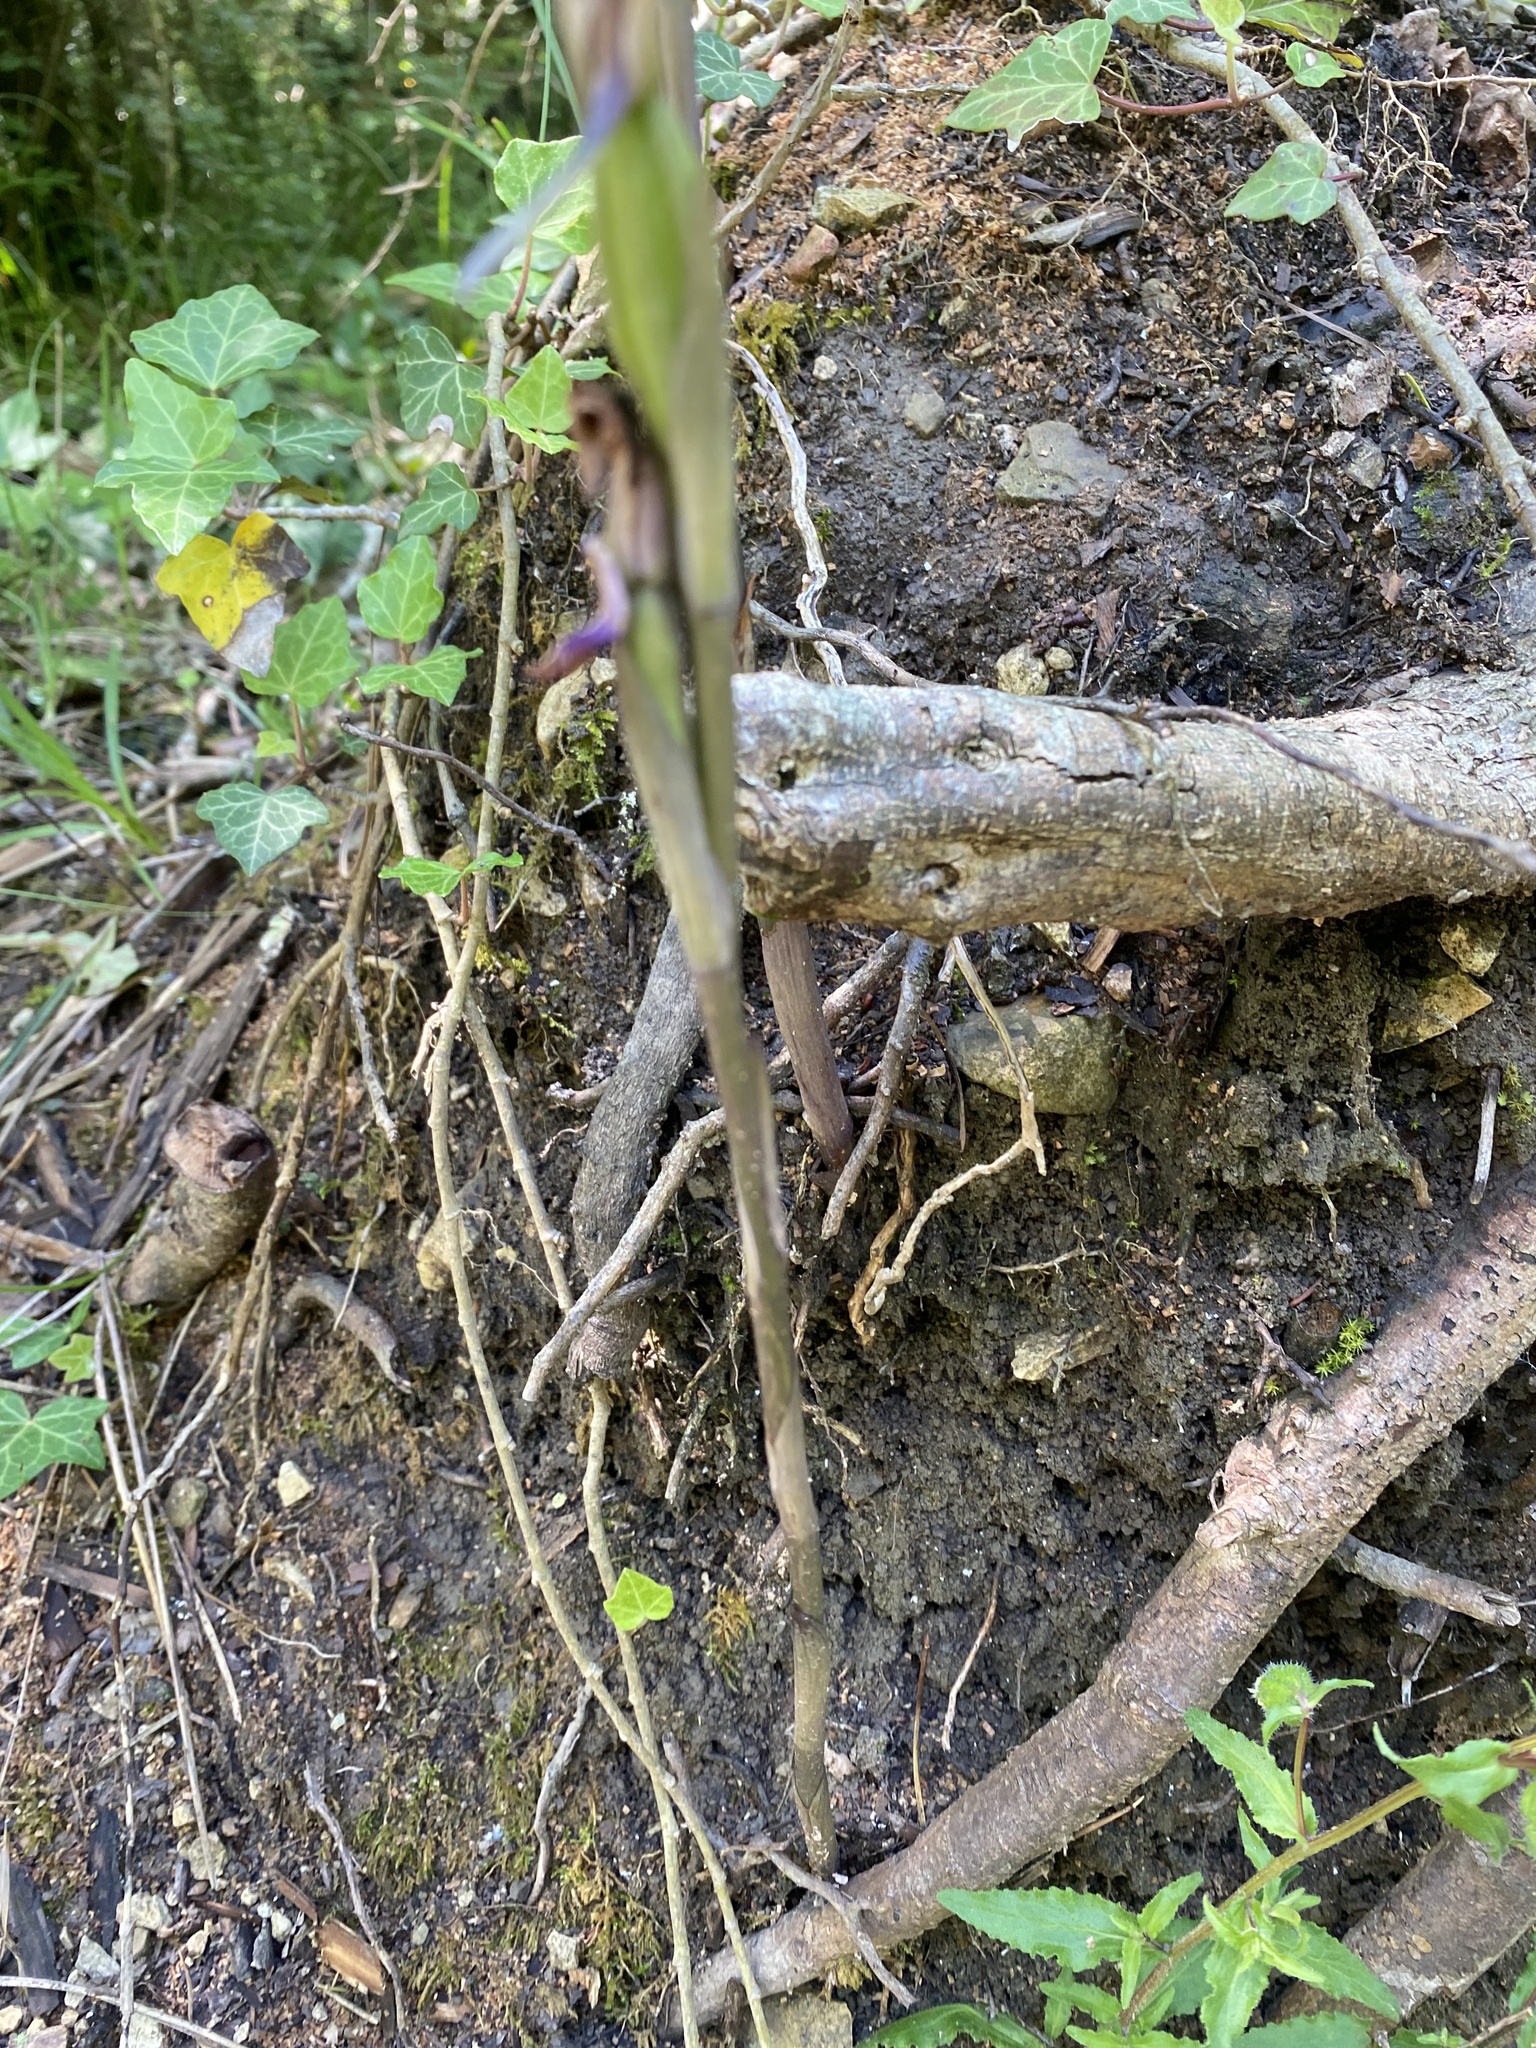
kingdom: Plantae
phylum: Tracheophyta
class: Liliopsida
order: Asparagales
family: Orchidaceae
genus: Limodorum
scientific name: Limodorum abortivum
